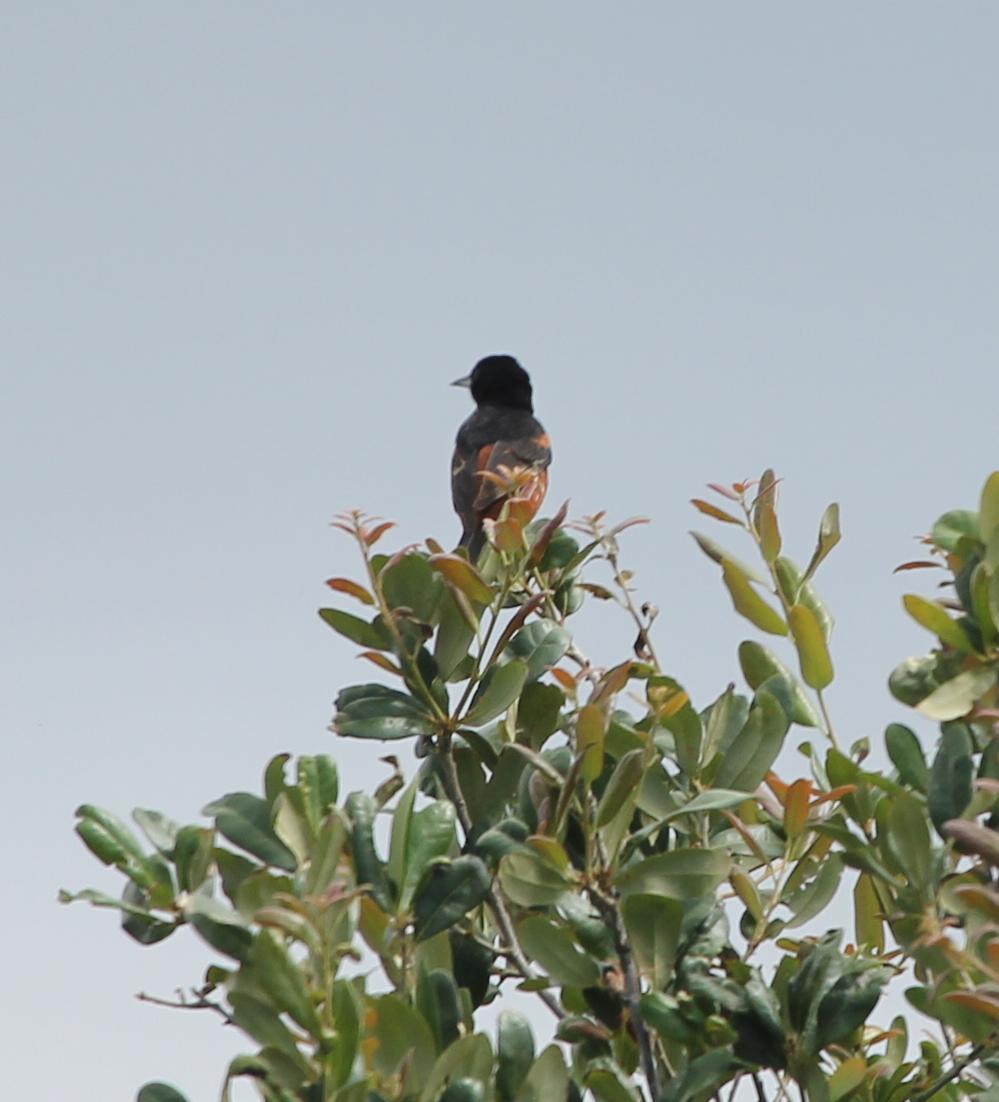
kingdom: Animalia
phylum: Chordata
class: Aves
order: Passeriformes
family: Icteridae
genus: Icterus
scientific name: Icterus spurius
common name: Orchard oriole
